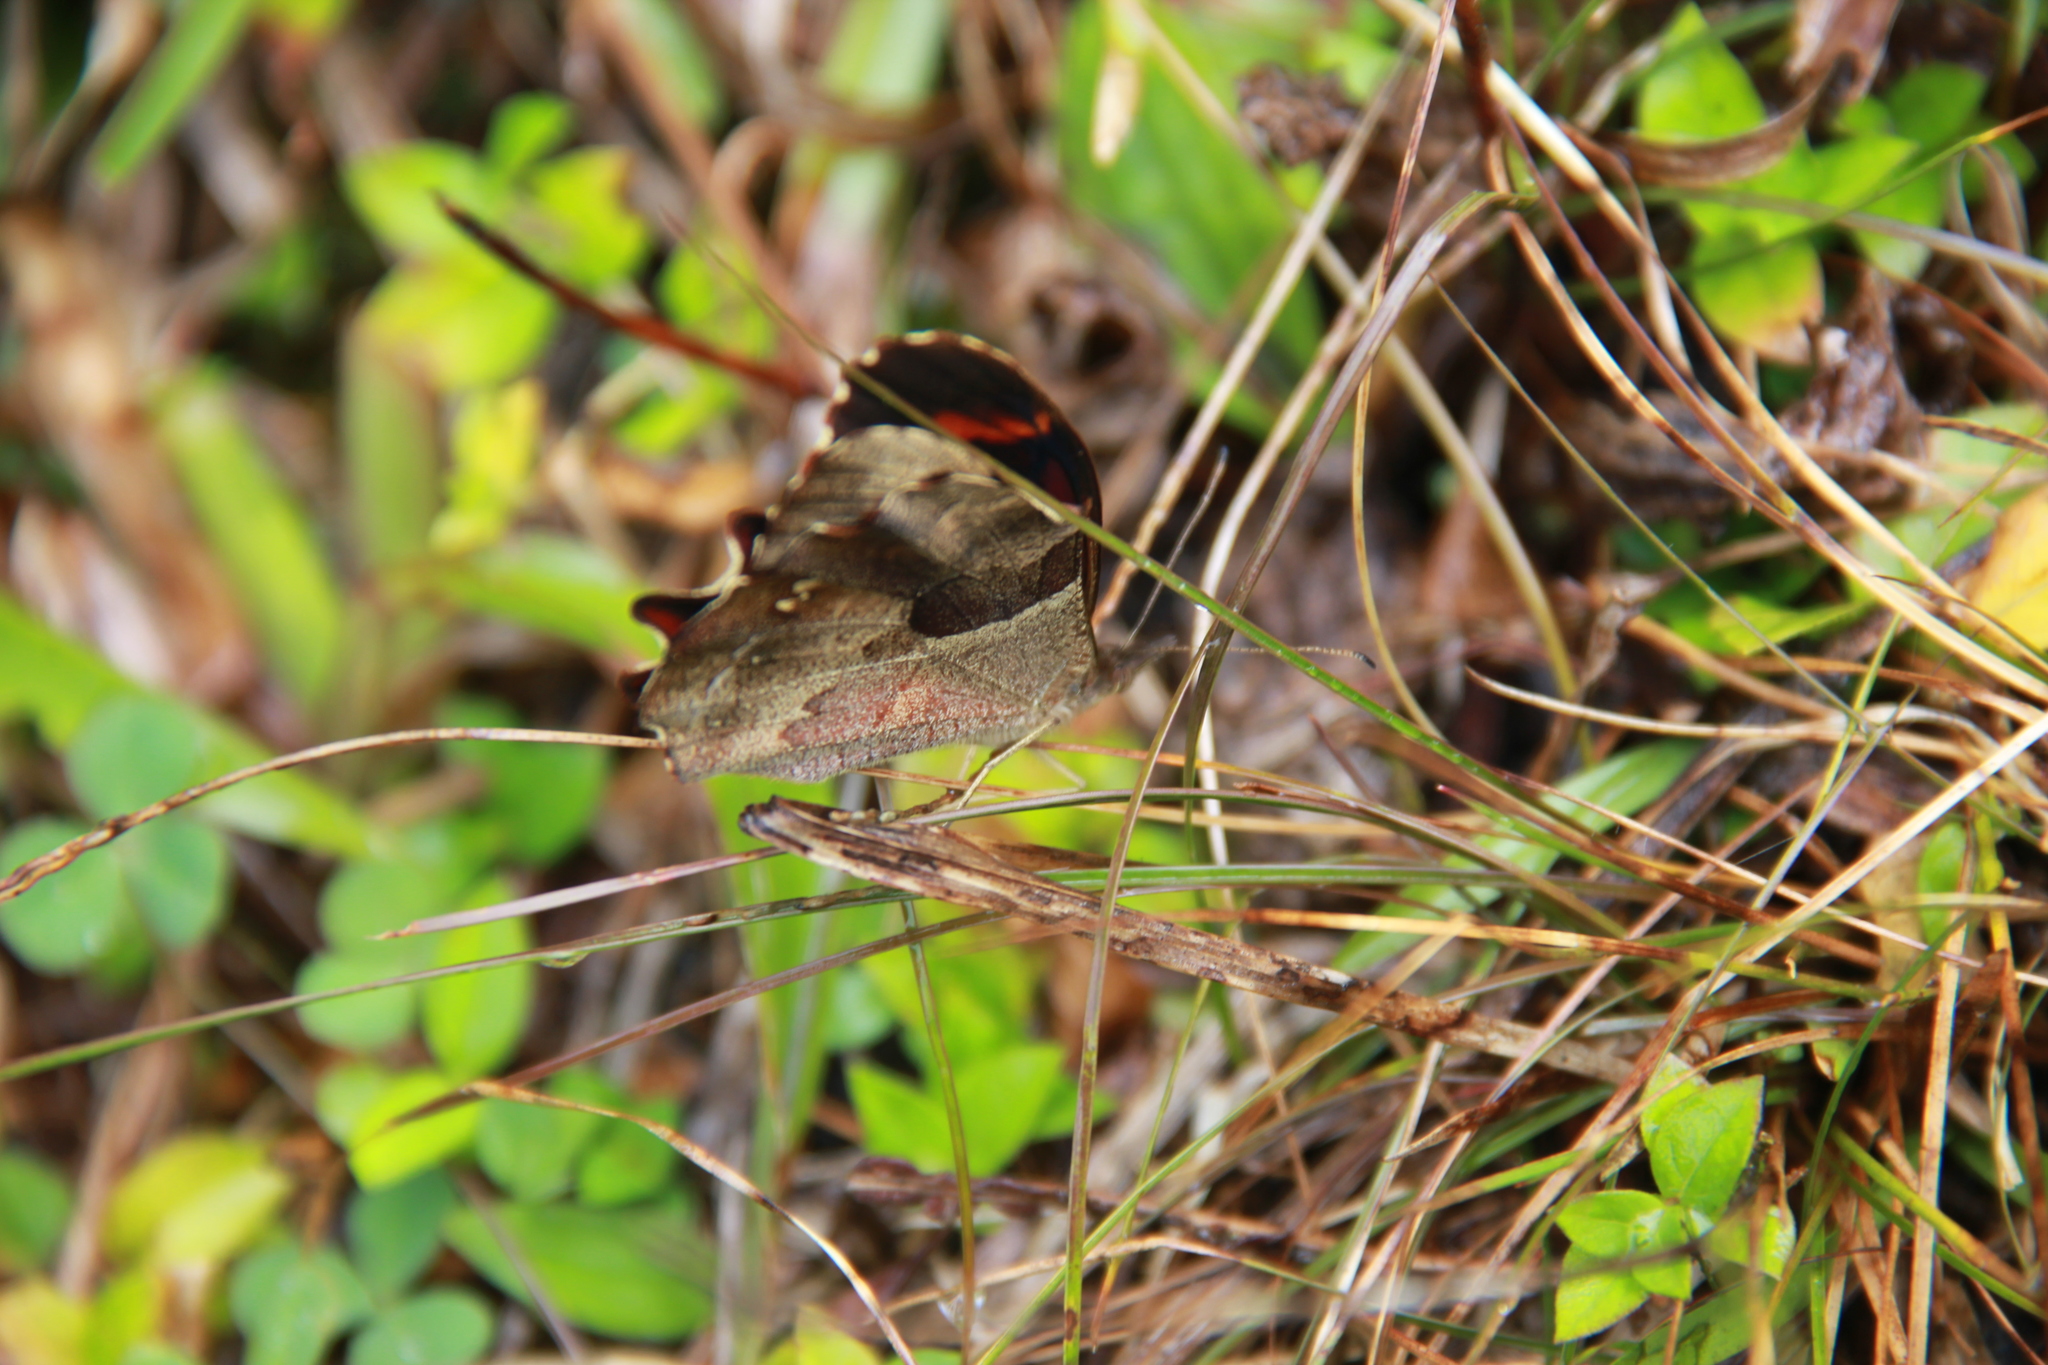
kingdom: Animalia
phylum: Arthropoda
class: Insecta
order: Lepidoptera
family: Nymphalidae
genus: Lasiophila
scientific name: Lasiophila orbifera
